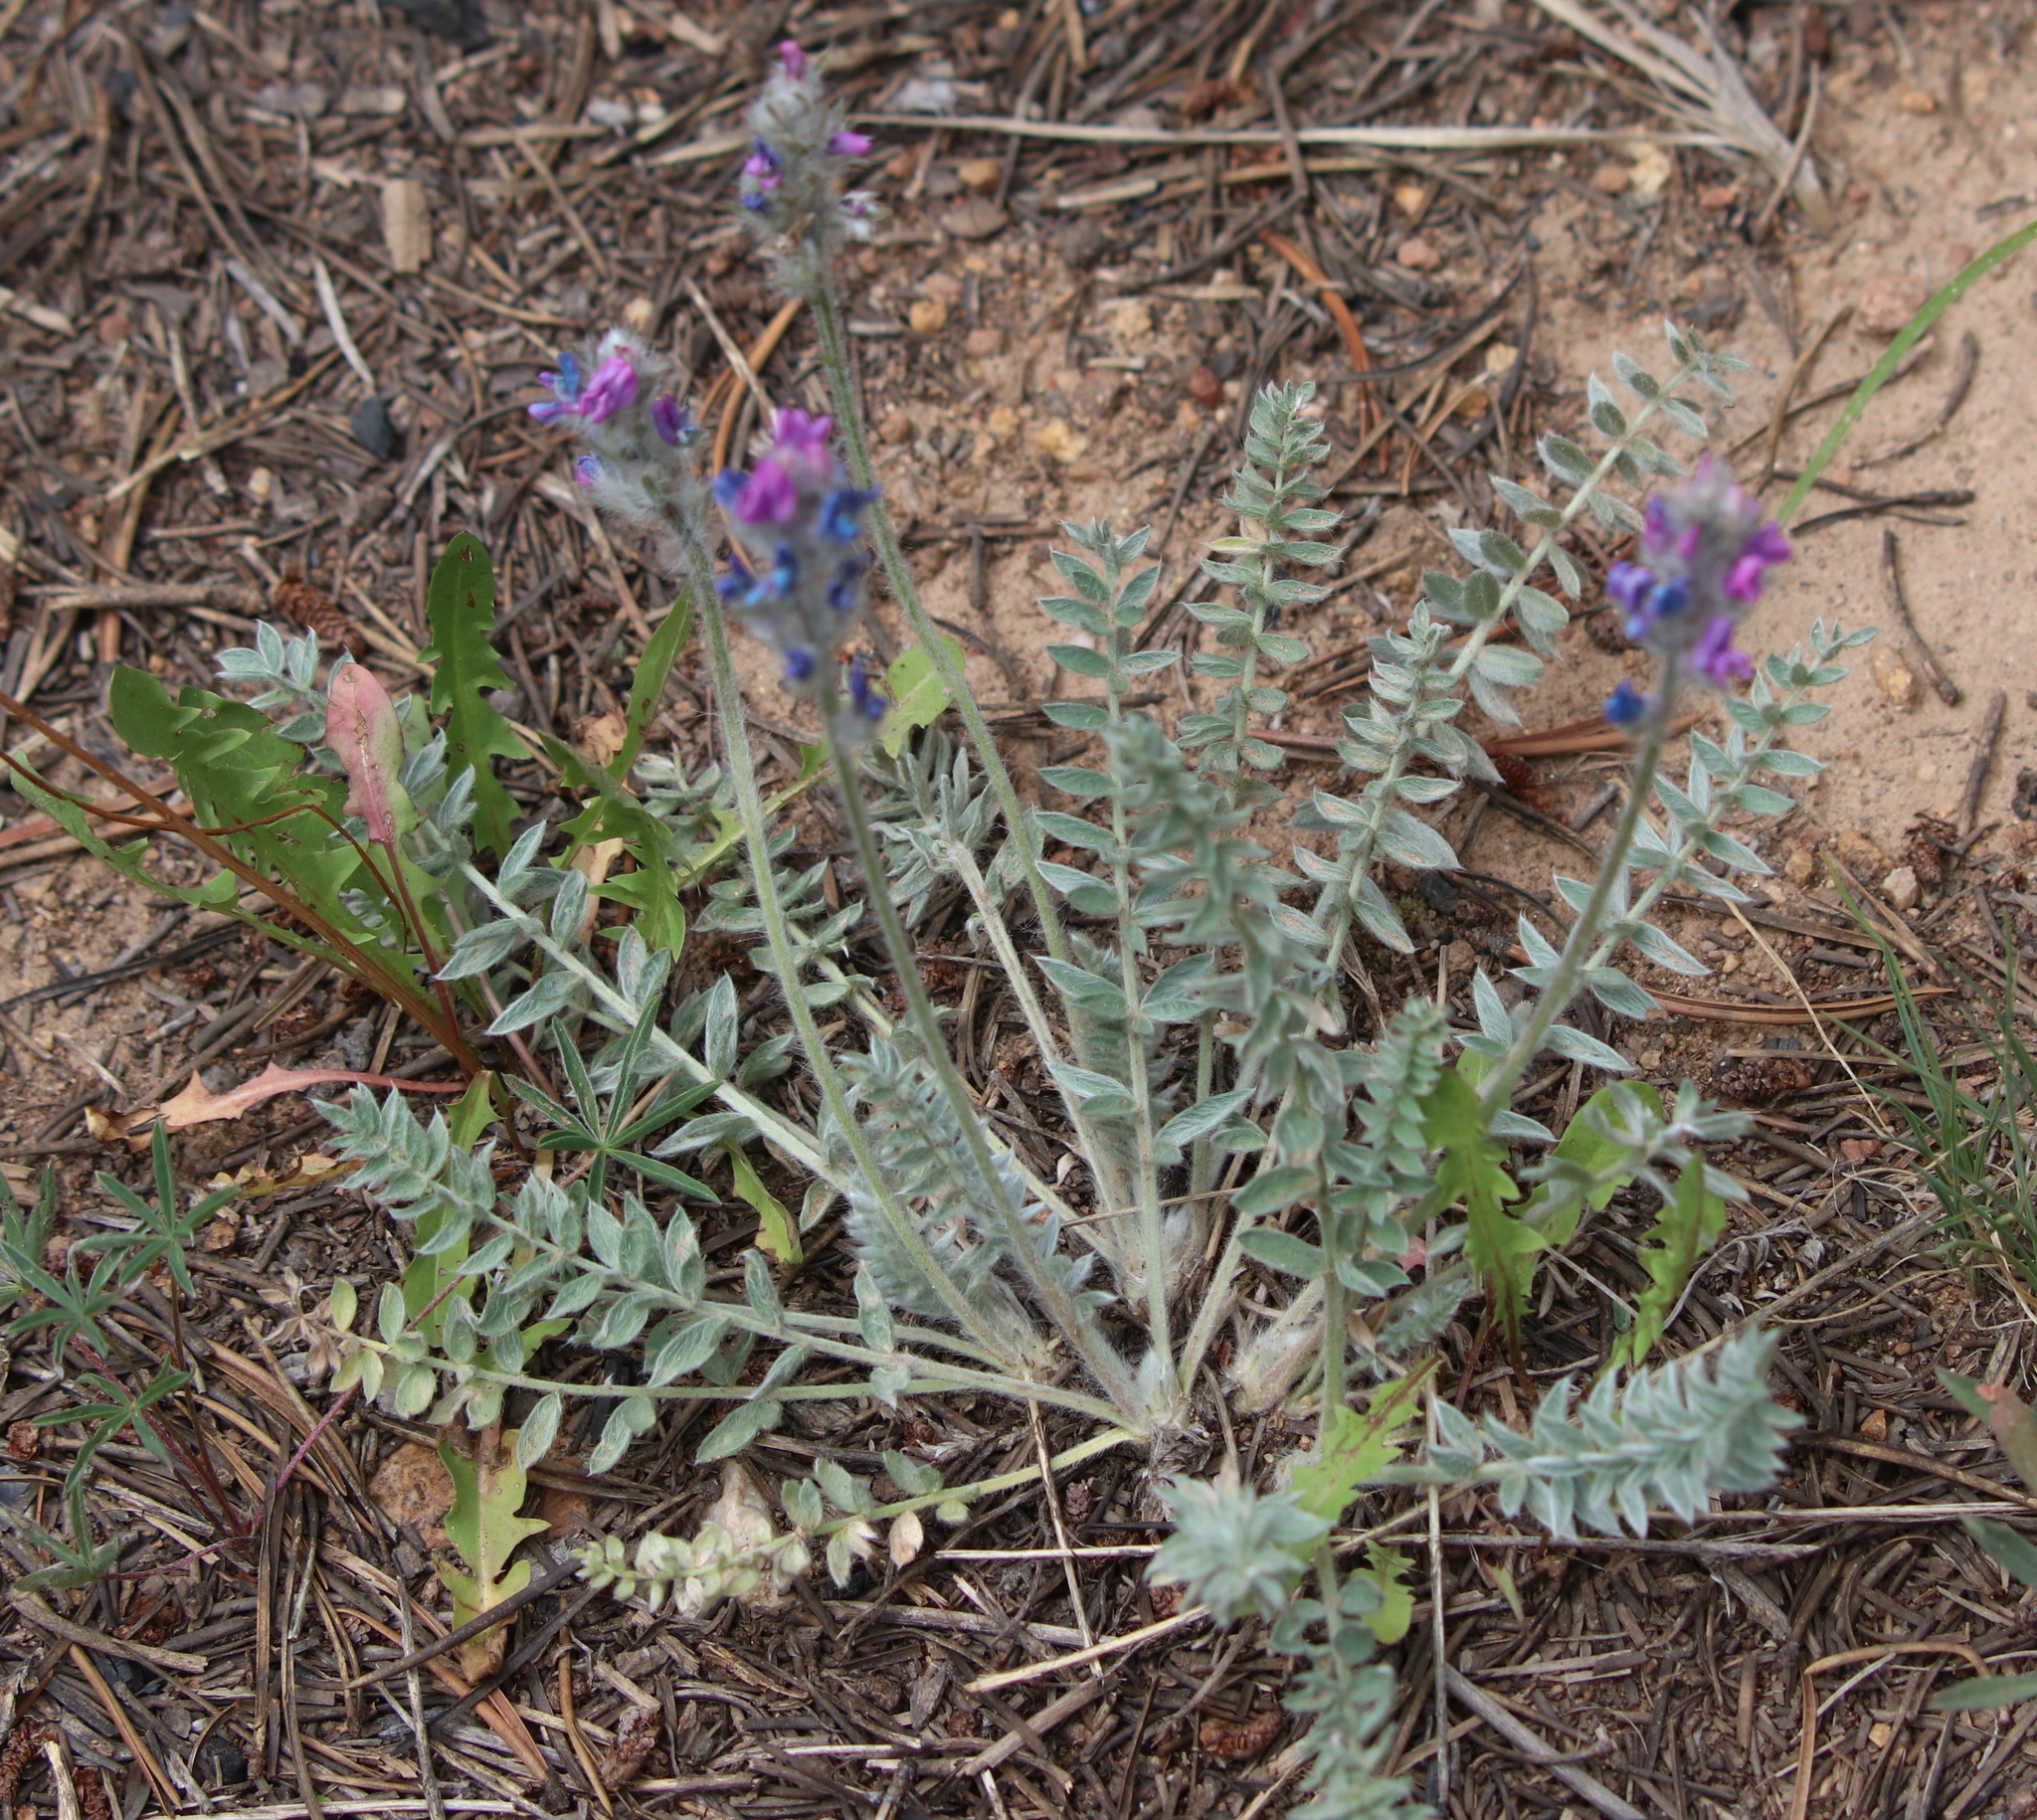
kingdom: Plantae
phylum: Tracheophyta
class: Magnoliopsida
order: Fabales
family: Fabaceae
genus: Oxytropis
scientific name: Oxytropis splendens
